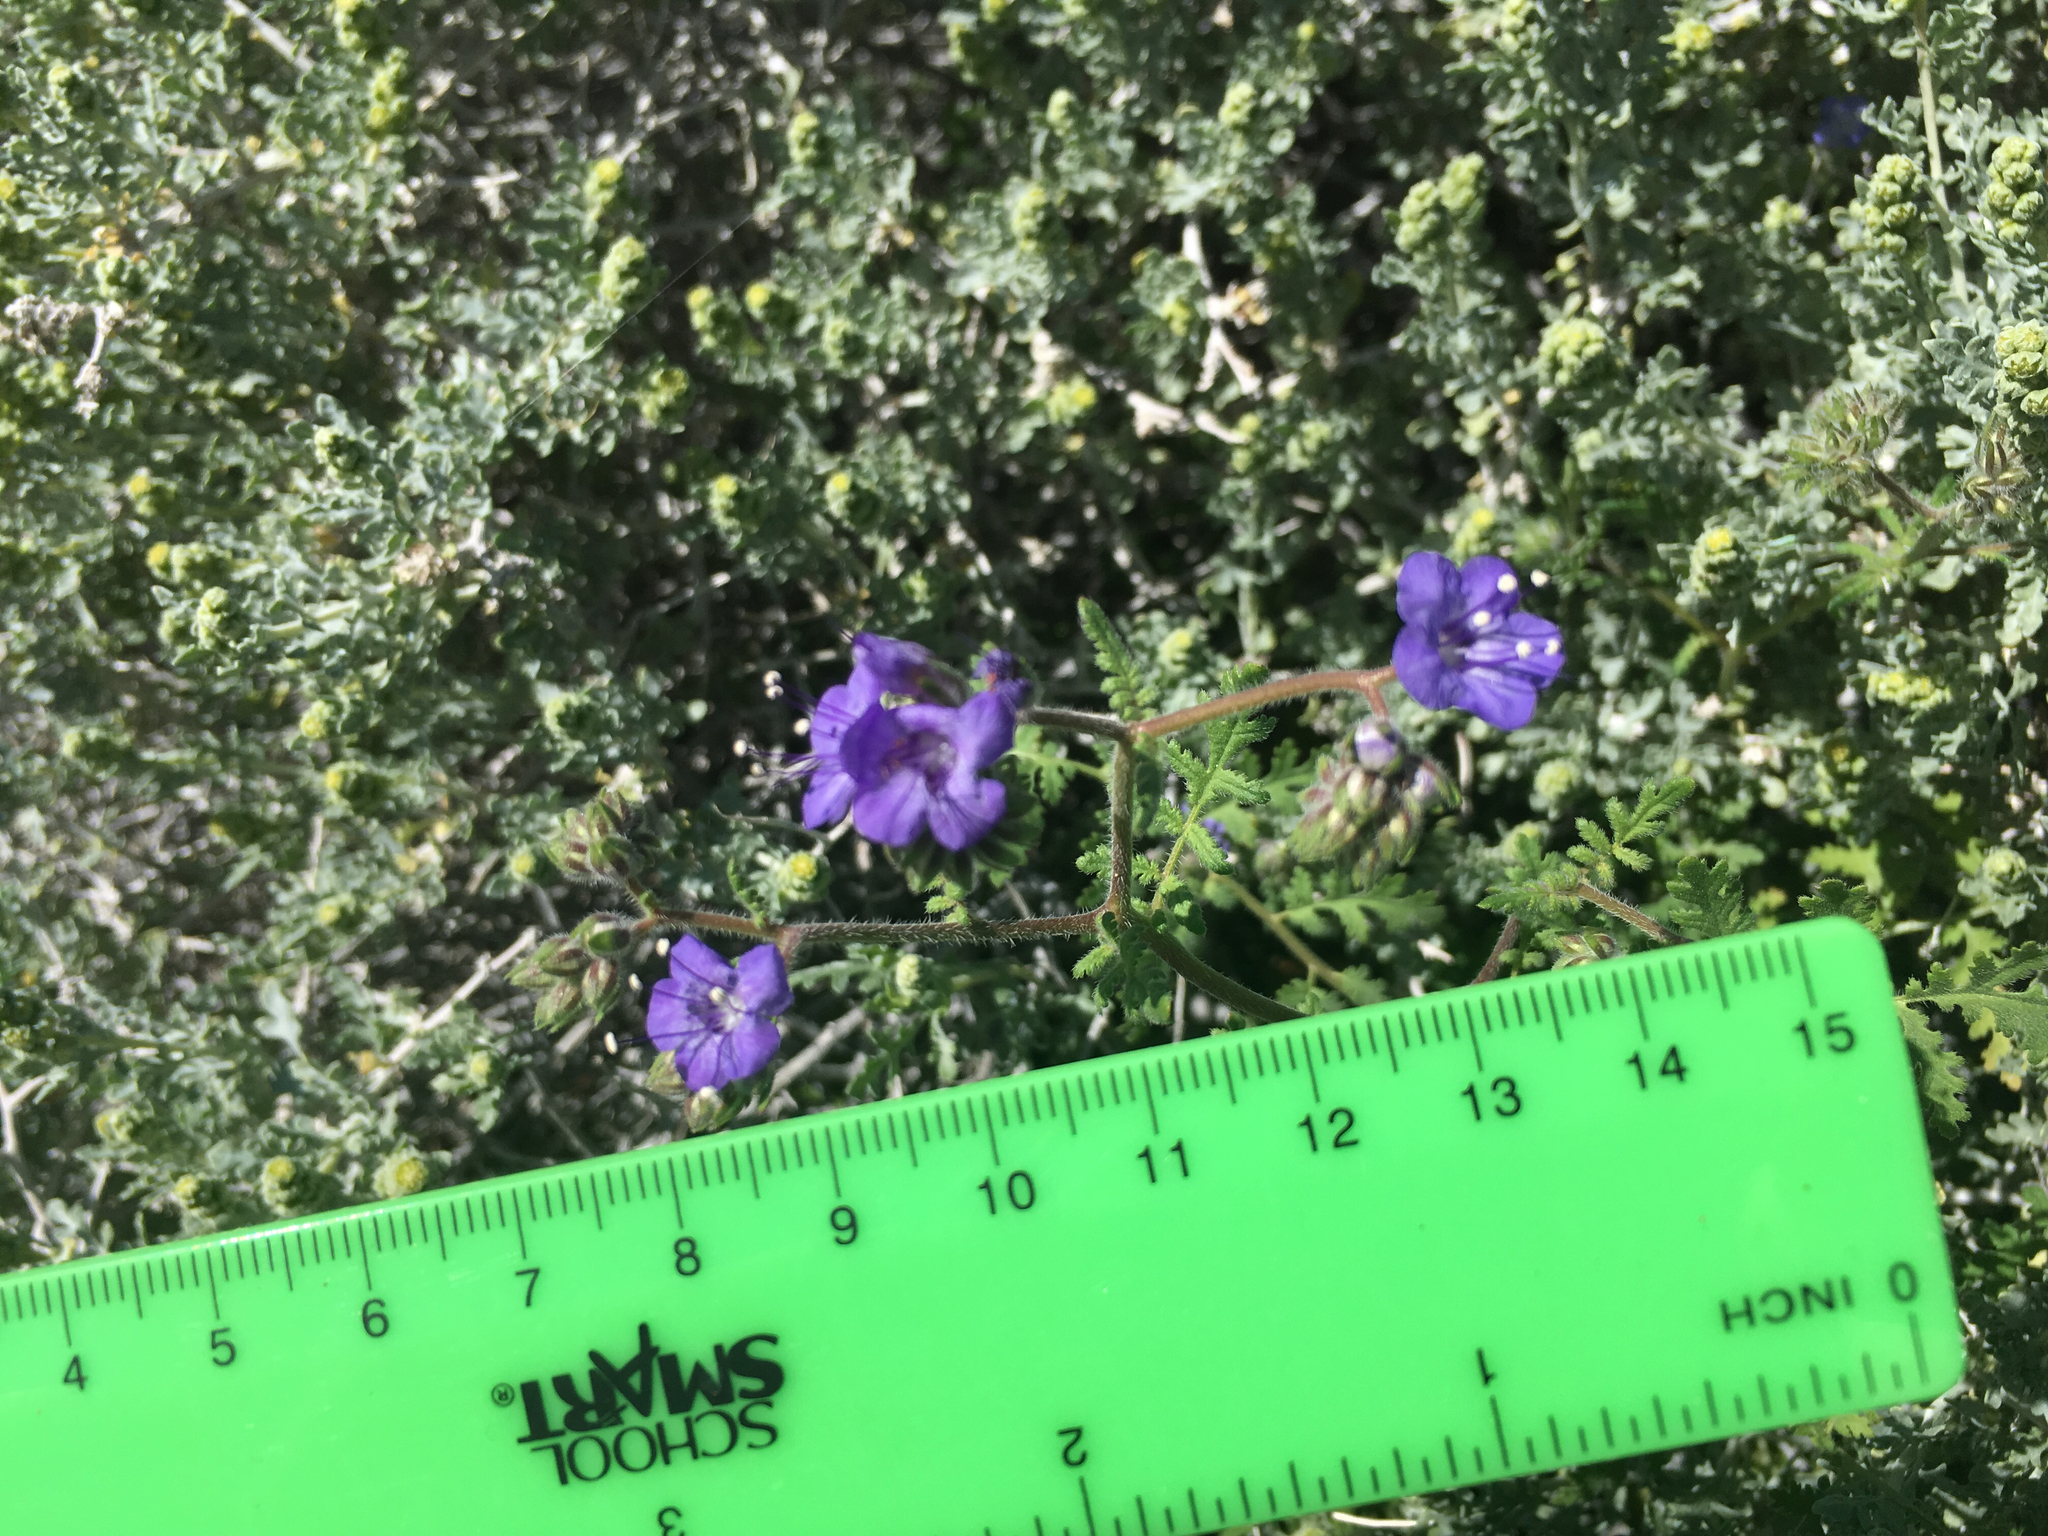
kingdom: Plantae
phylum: Tracheophyta
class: Magnoliopsida
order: Boraginales
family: Hydrophyllaceae
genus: Phacelia
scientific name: Phacelia distans
